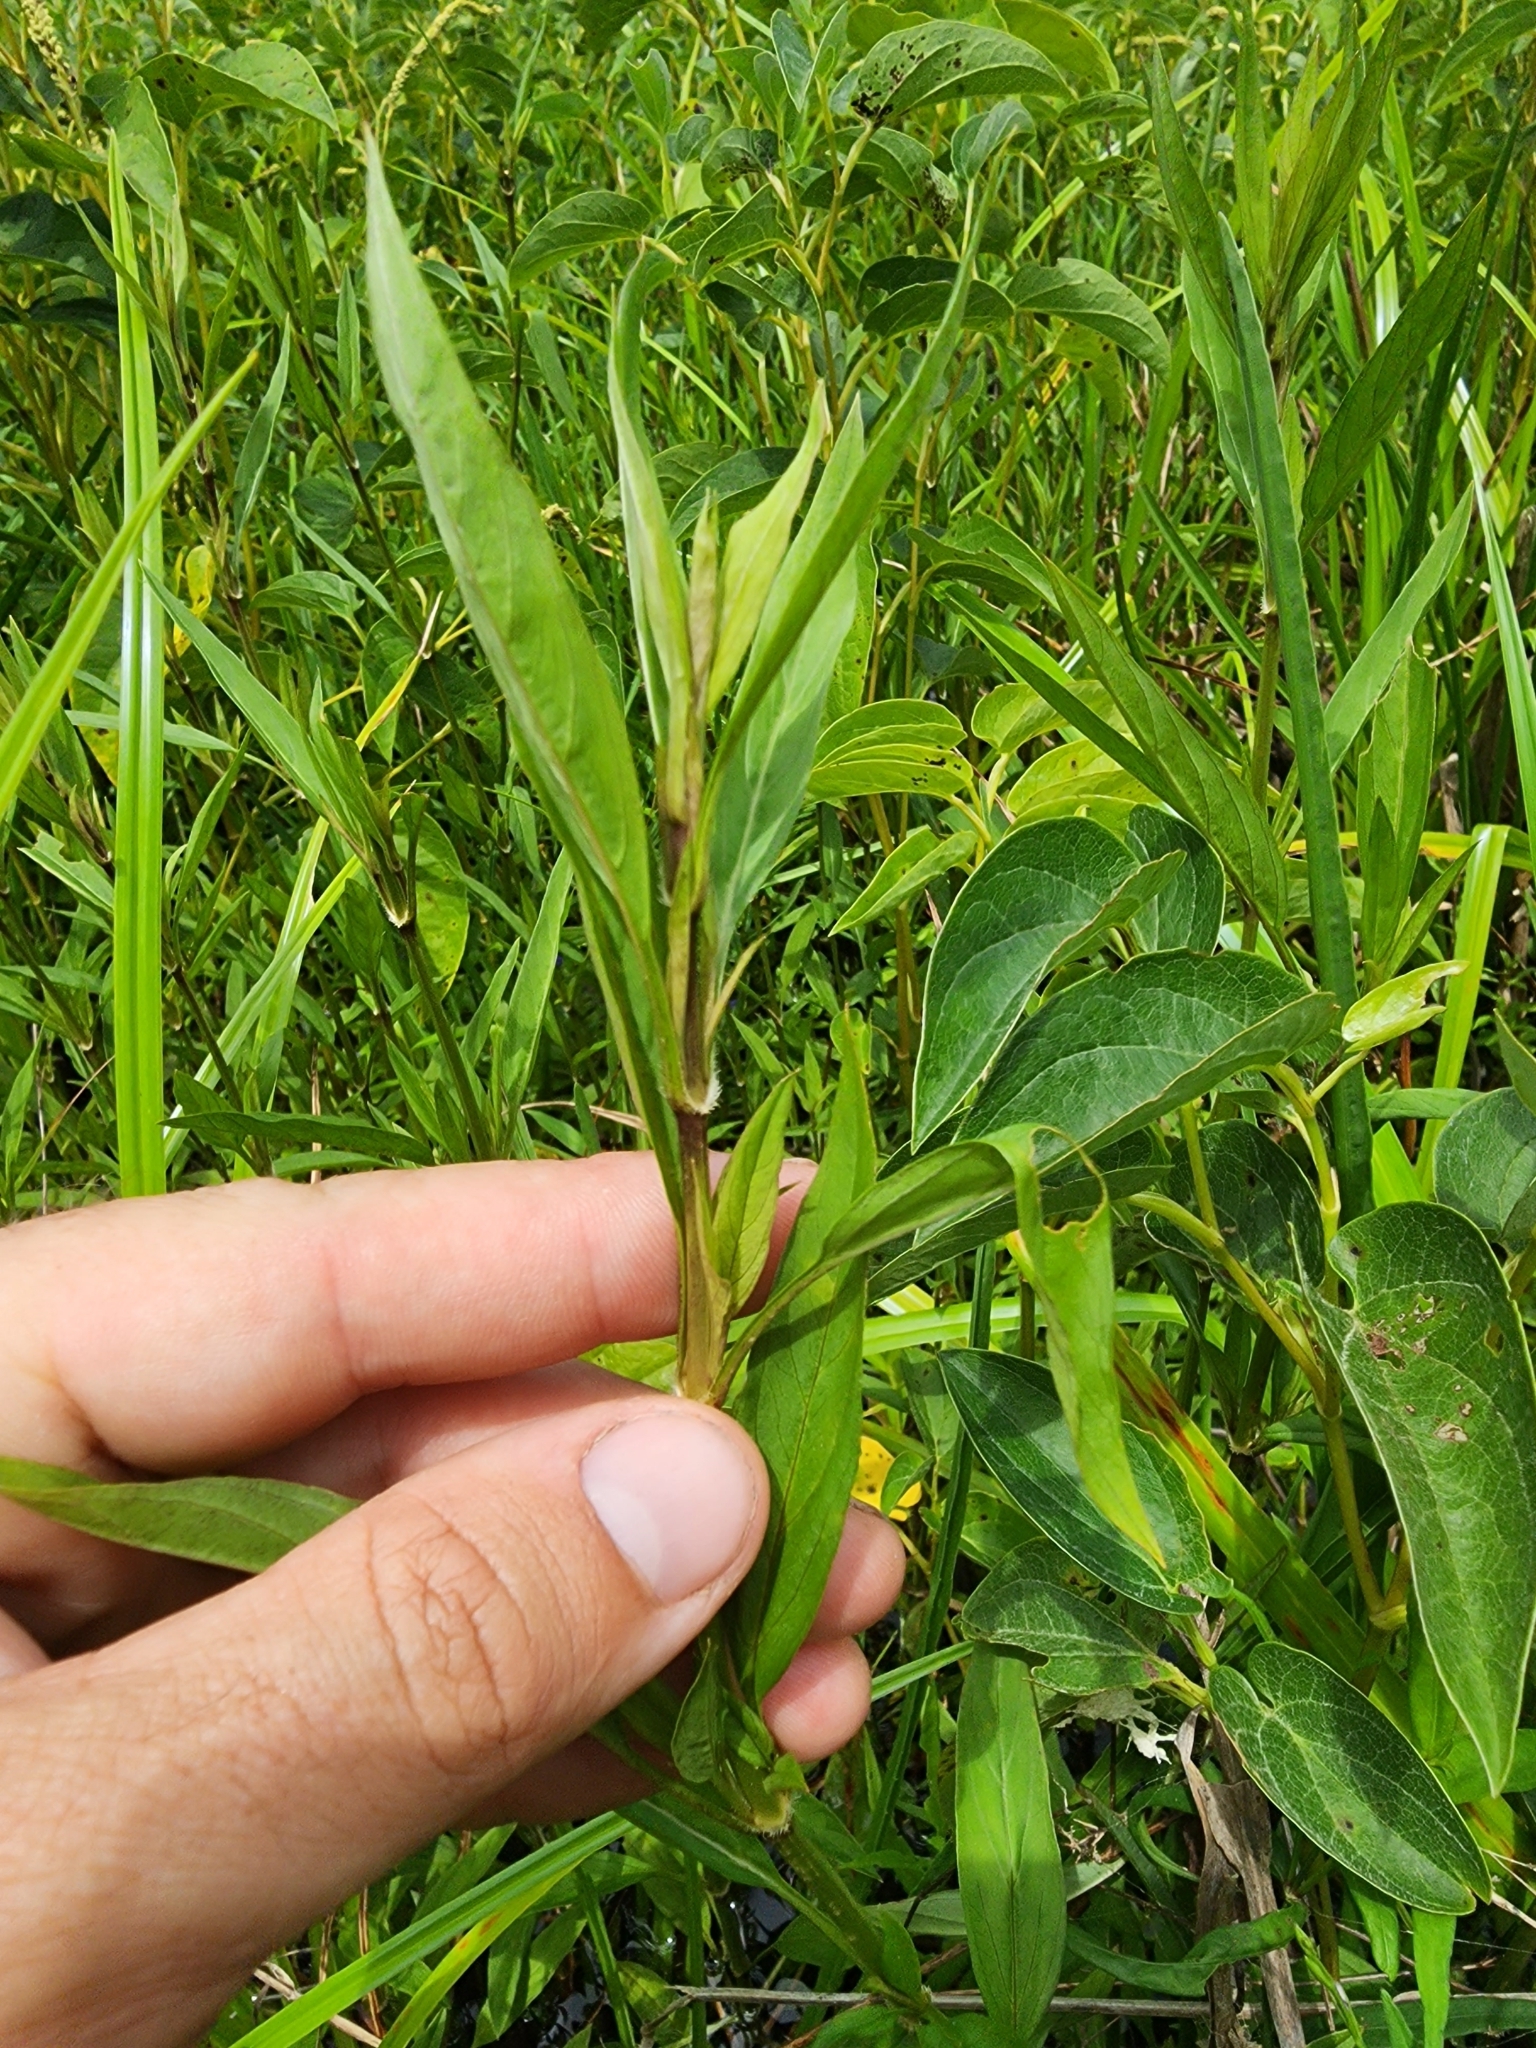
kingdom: Plantae
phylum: Tracheophyta
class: Magnoliopsida
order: Lamiales
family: Acanthaceae
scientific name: Acanthaceae
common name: Acanthaceae
